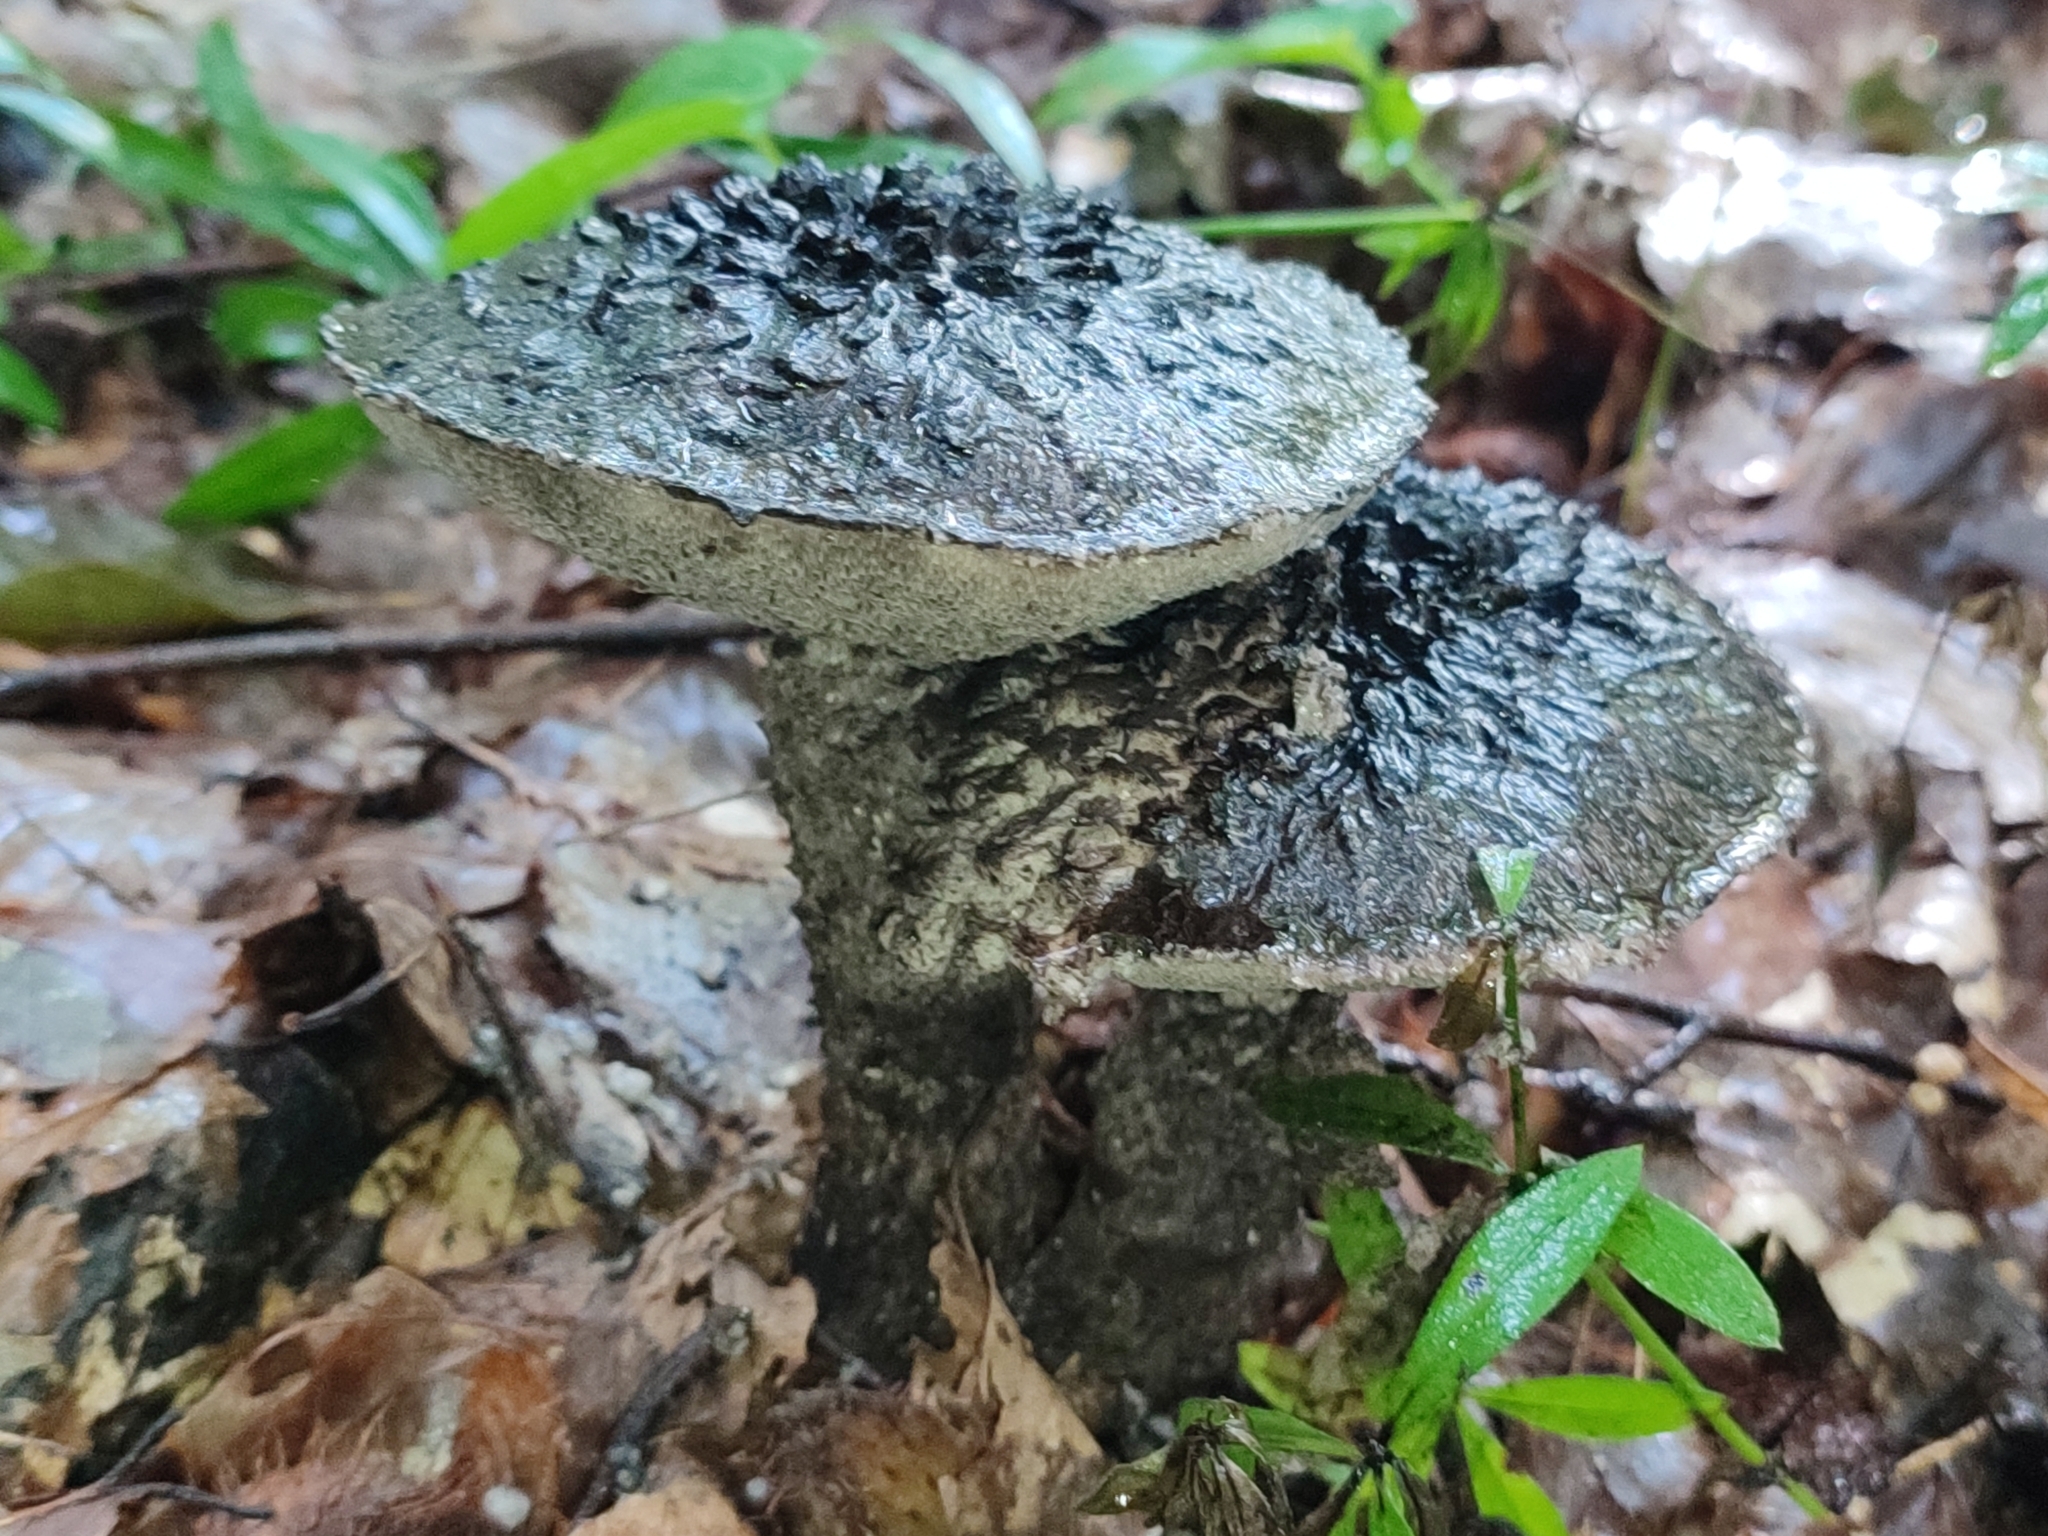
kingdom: Fungi
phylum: Basidiomycota
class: Agaricomycetes
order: Boletales
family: Boletaceae
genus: Strobilomyces
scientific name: Strobilomyces strobilaceus
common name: Old man of the woods
